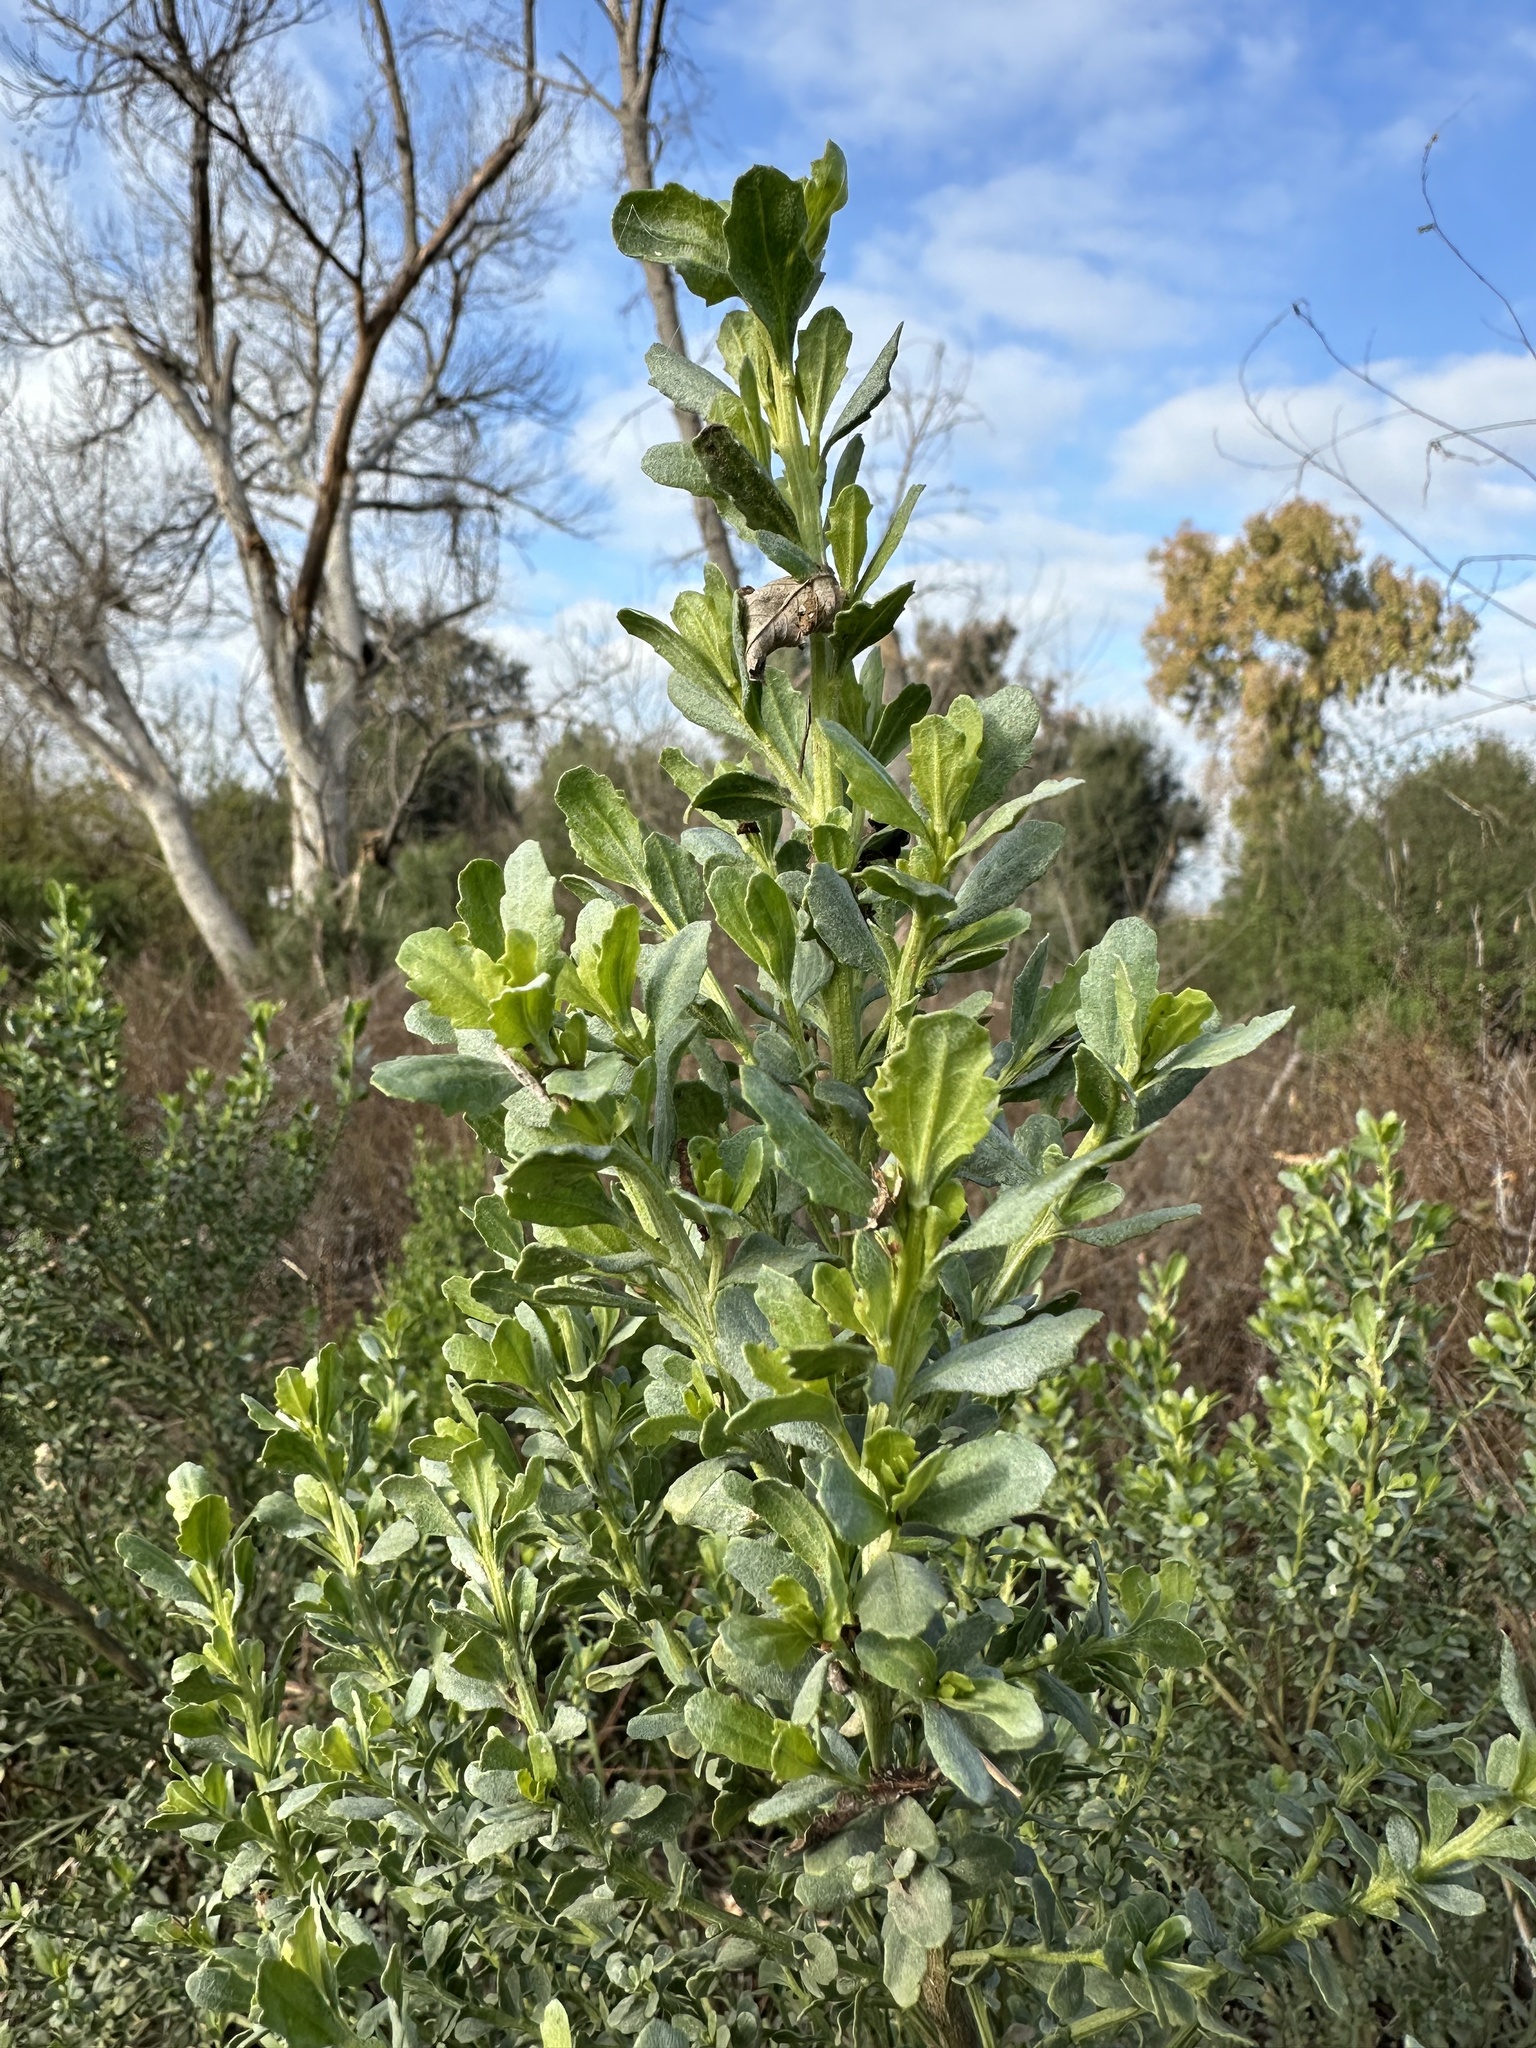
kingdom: Plantae
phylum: Tracheophyta
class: Magnoliopsida
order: Asterales
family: Asteraceae
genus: Baccharis
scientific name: Baccharis pilularis
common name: Coyotebrush
